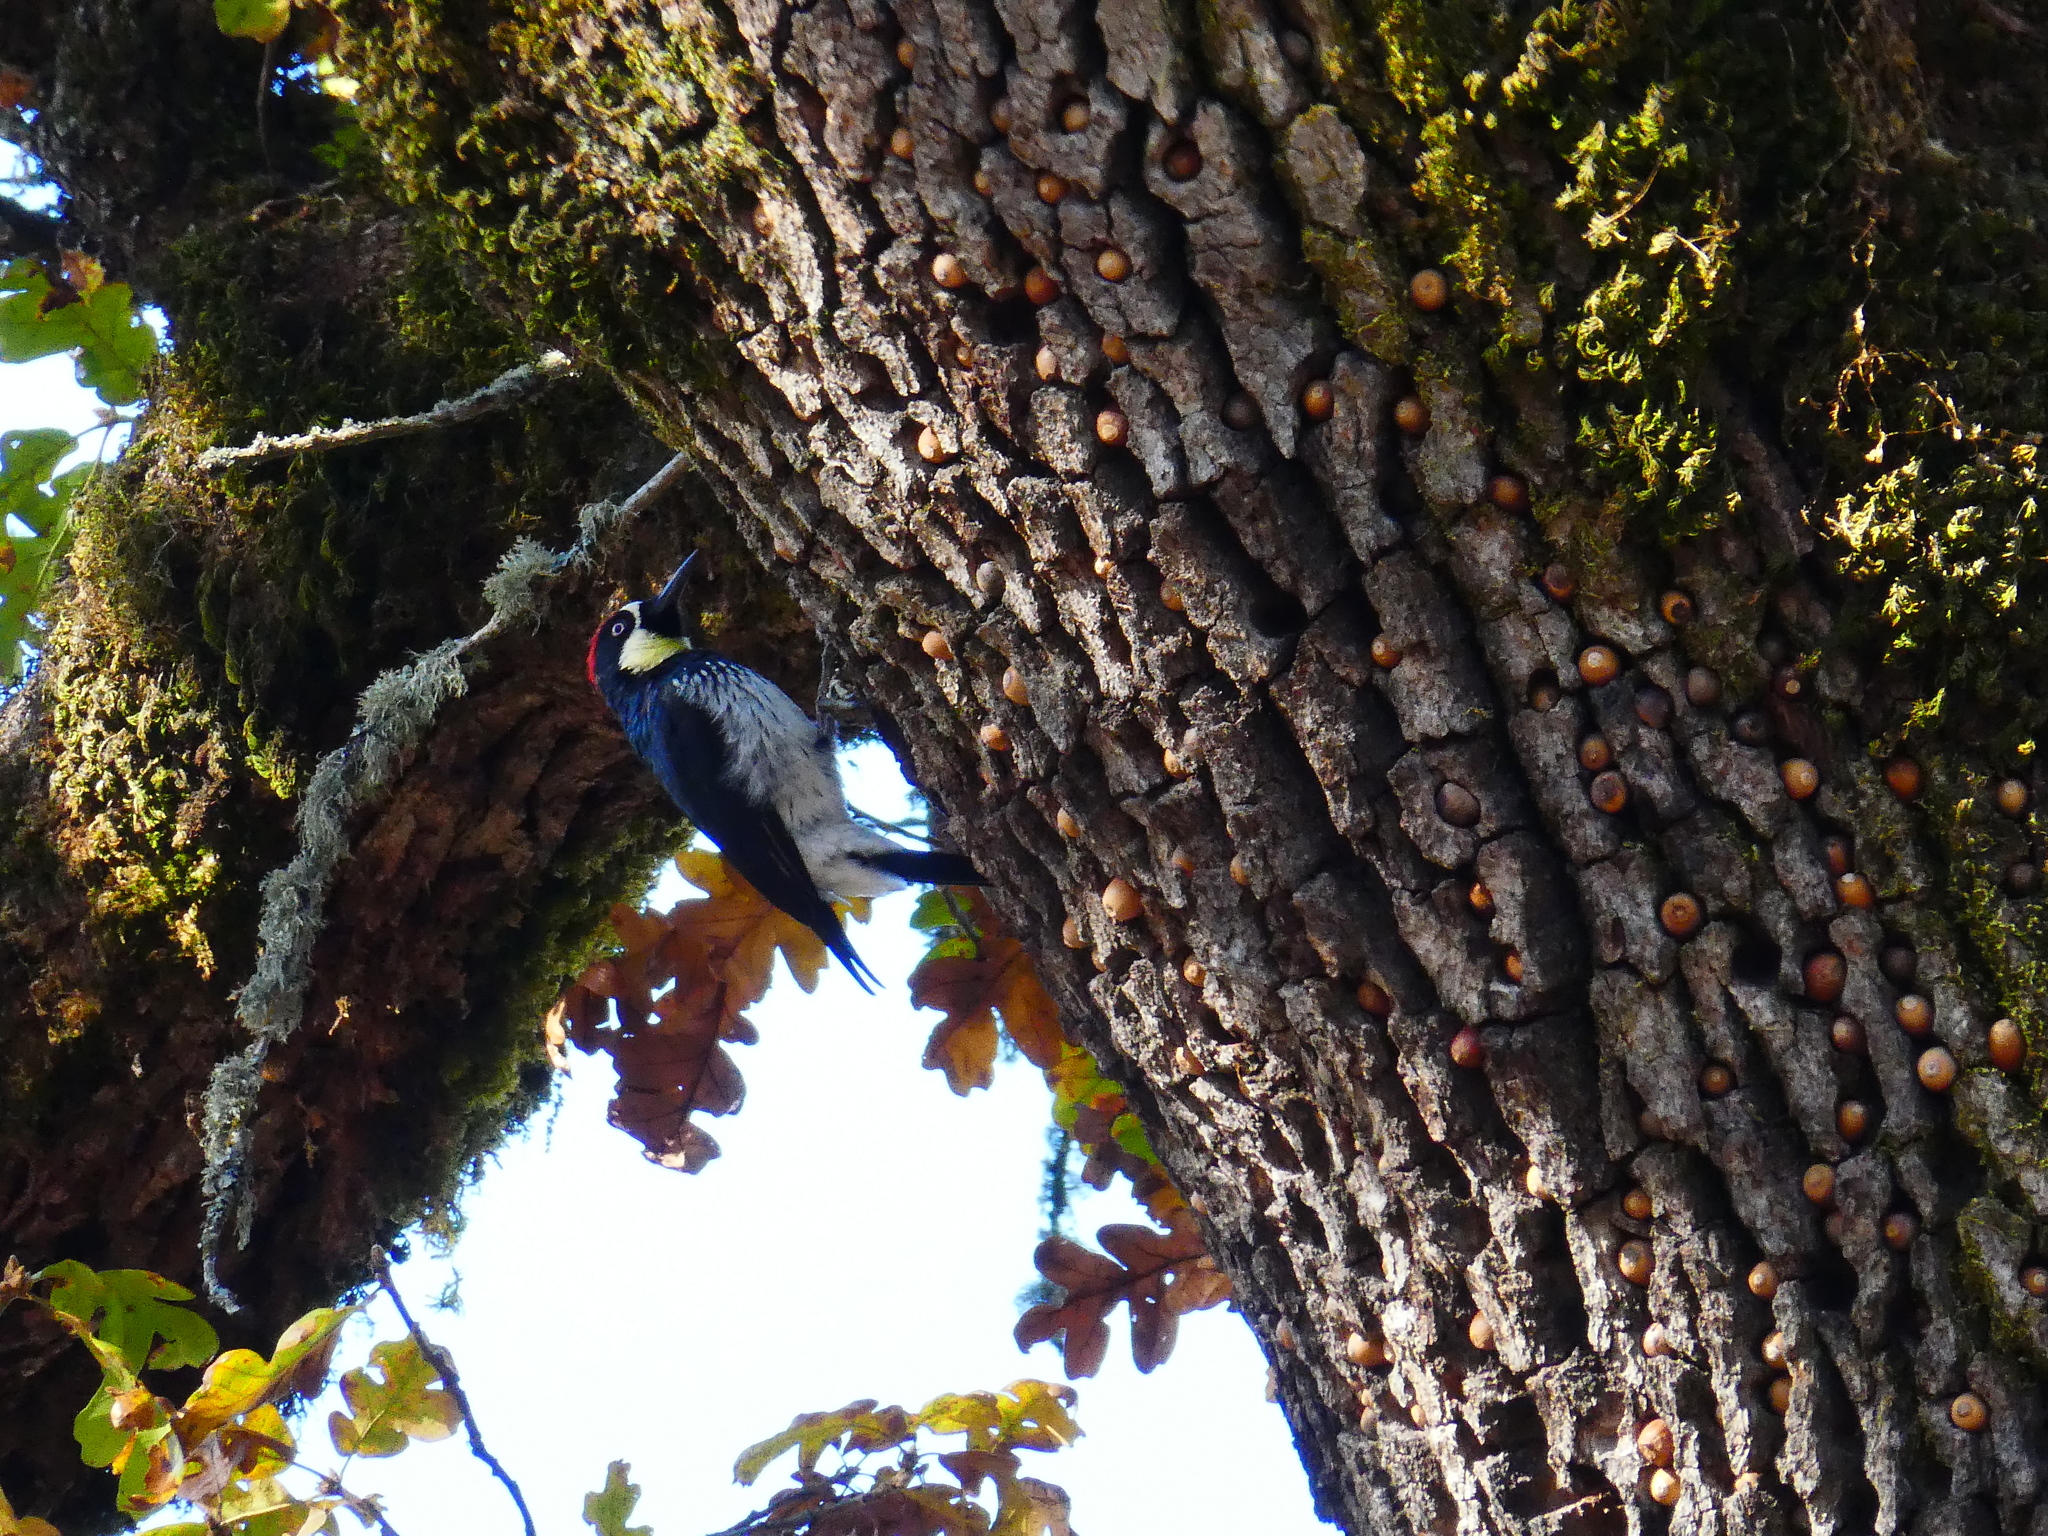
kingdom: Animalia
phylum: Chordata
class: Aves
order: Piciformes
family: Picidae
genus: Melanerpes
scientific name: Melanerpes formicivorus
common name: Acorn woodpecker
